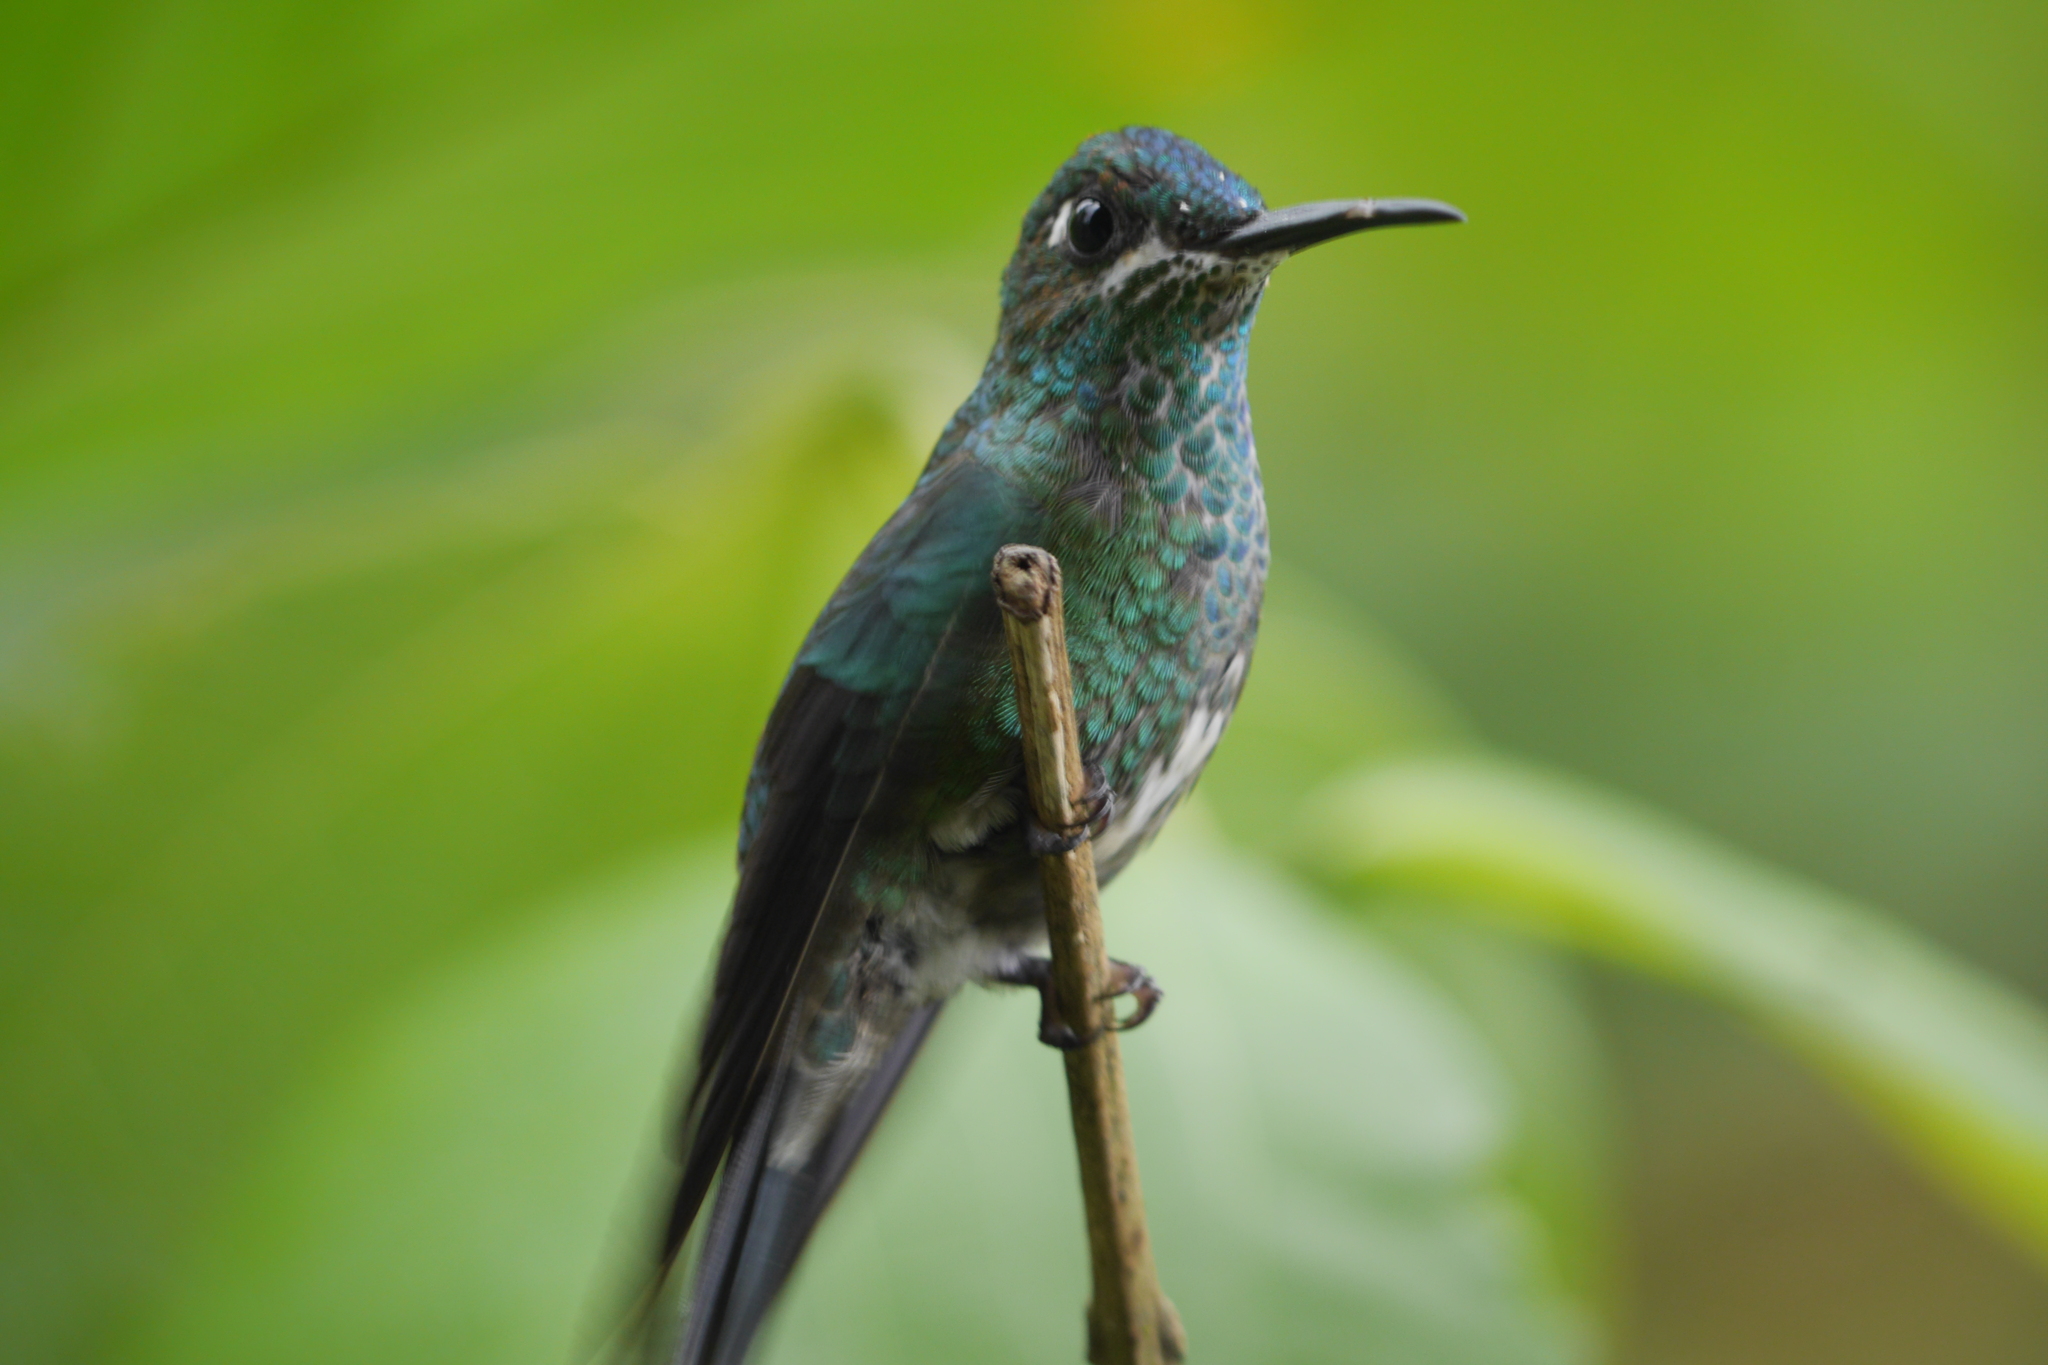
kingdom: Animalia
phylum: Chordata
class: Aves
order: Apodiformes
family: Trochilidae
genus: Heliodoxa
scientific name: Heliodoxa jacula
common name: Green-crowned brilliant
